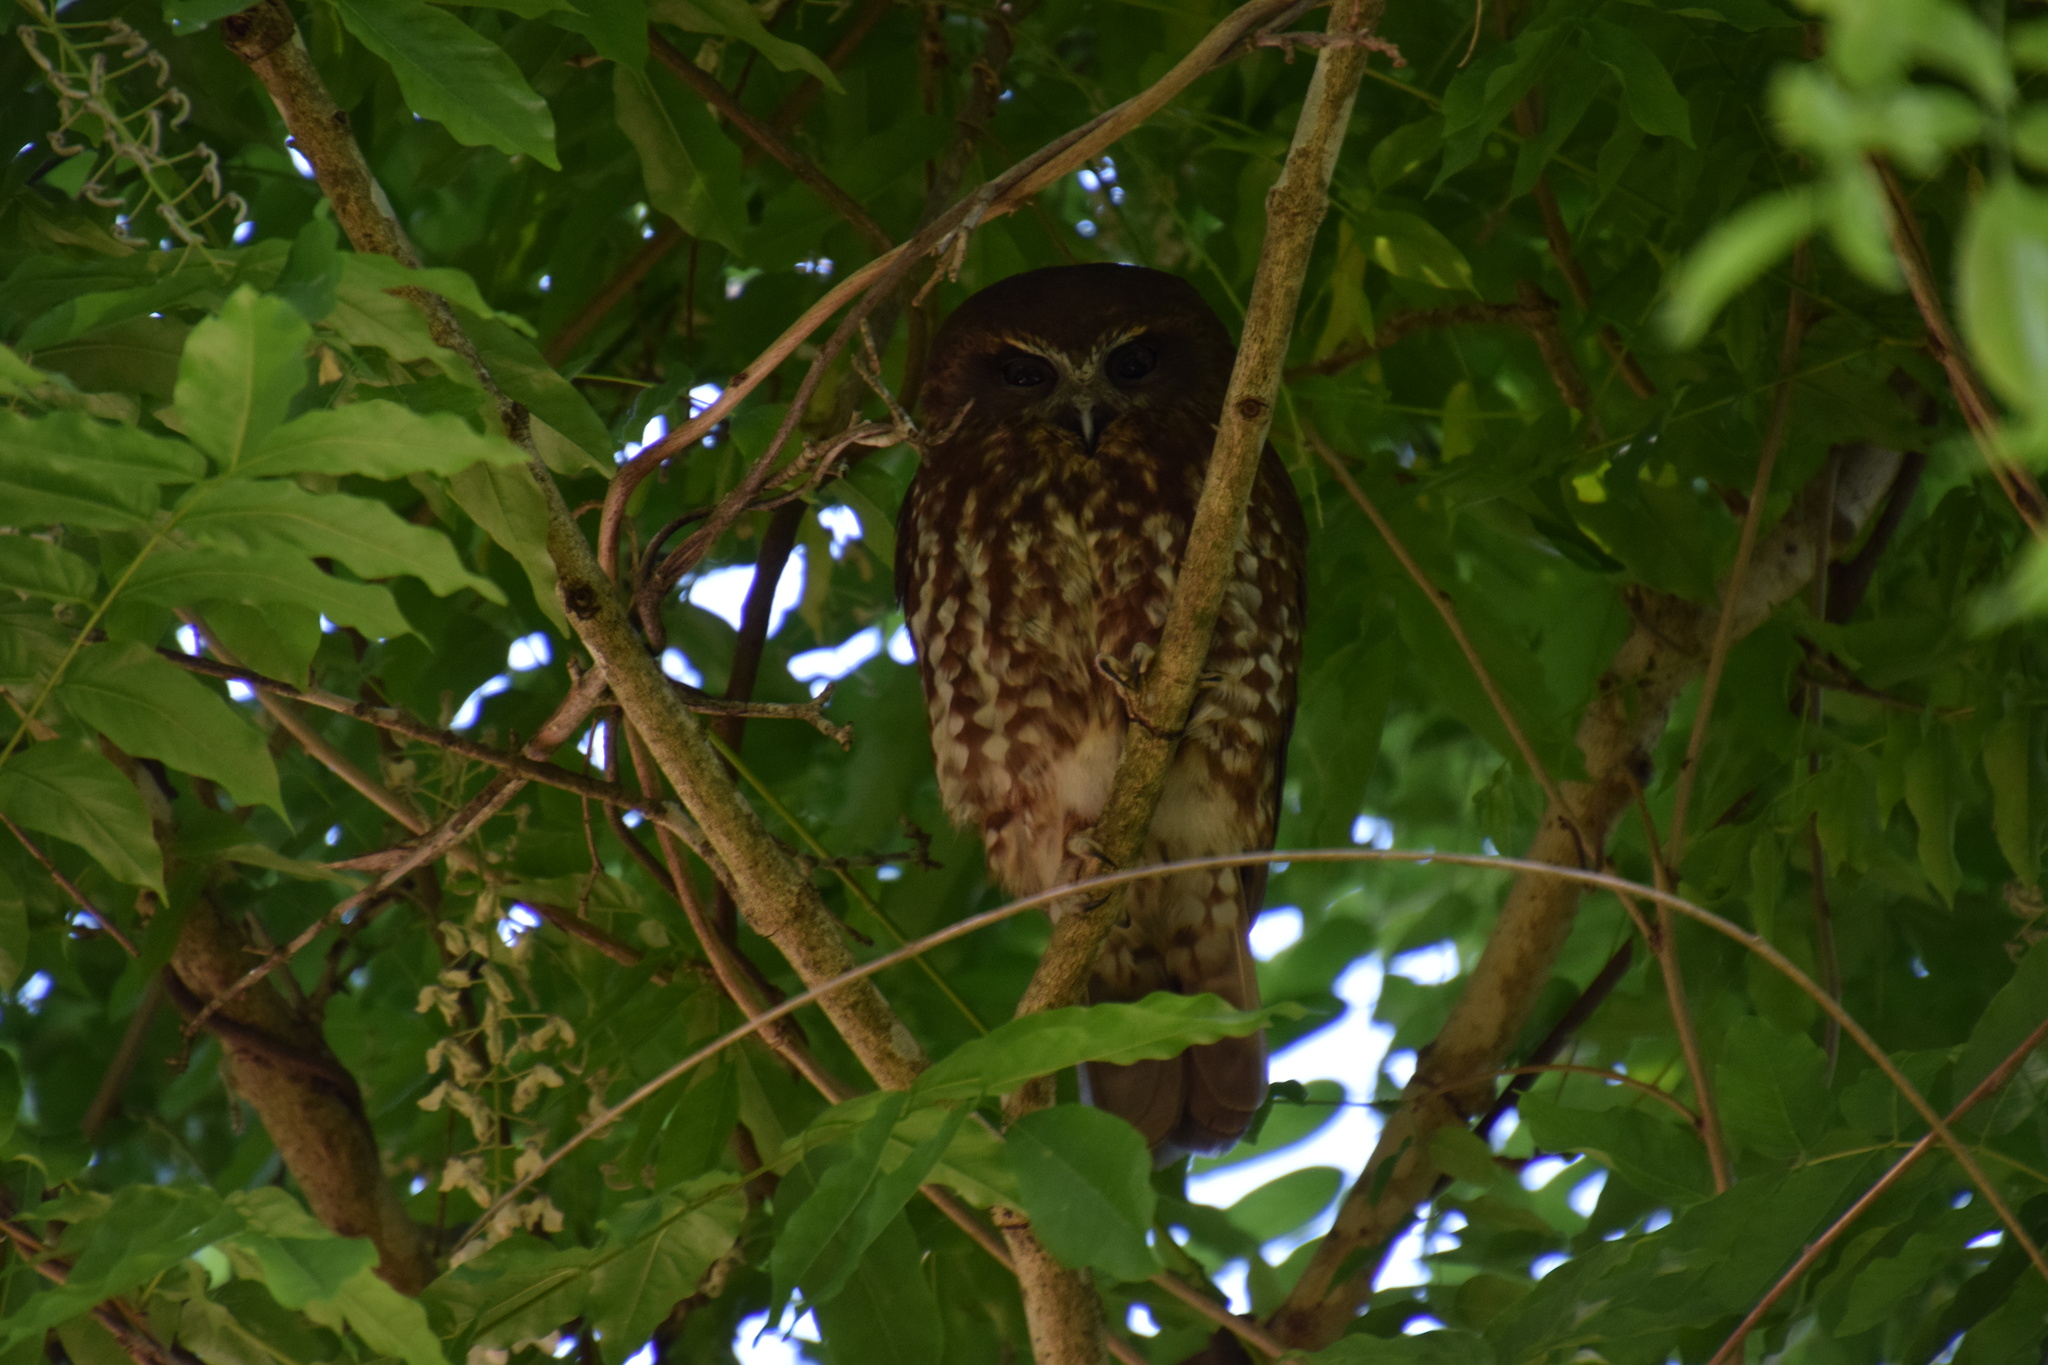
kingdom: Animalia
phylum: Chordata
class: Aves
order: Strigiformes
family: Strigidae
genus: Ninox
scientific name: Ninox boobook
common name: Southern boobook
